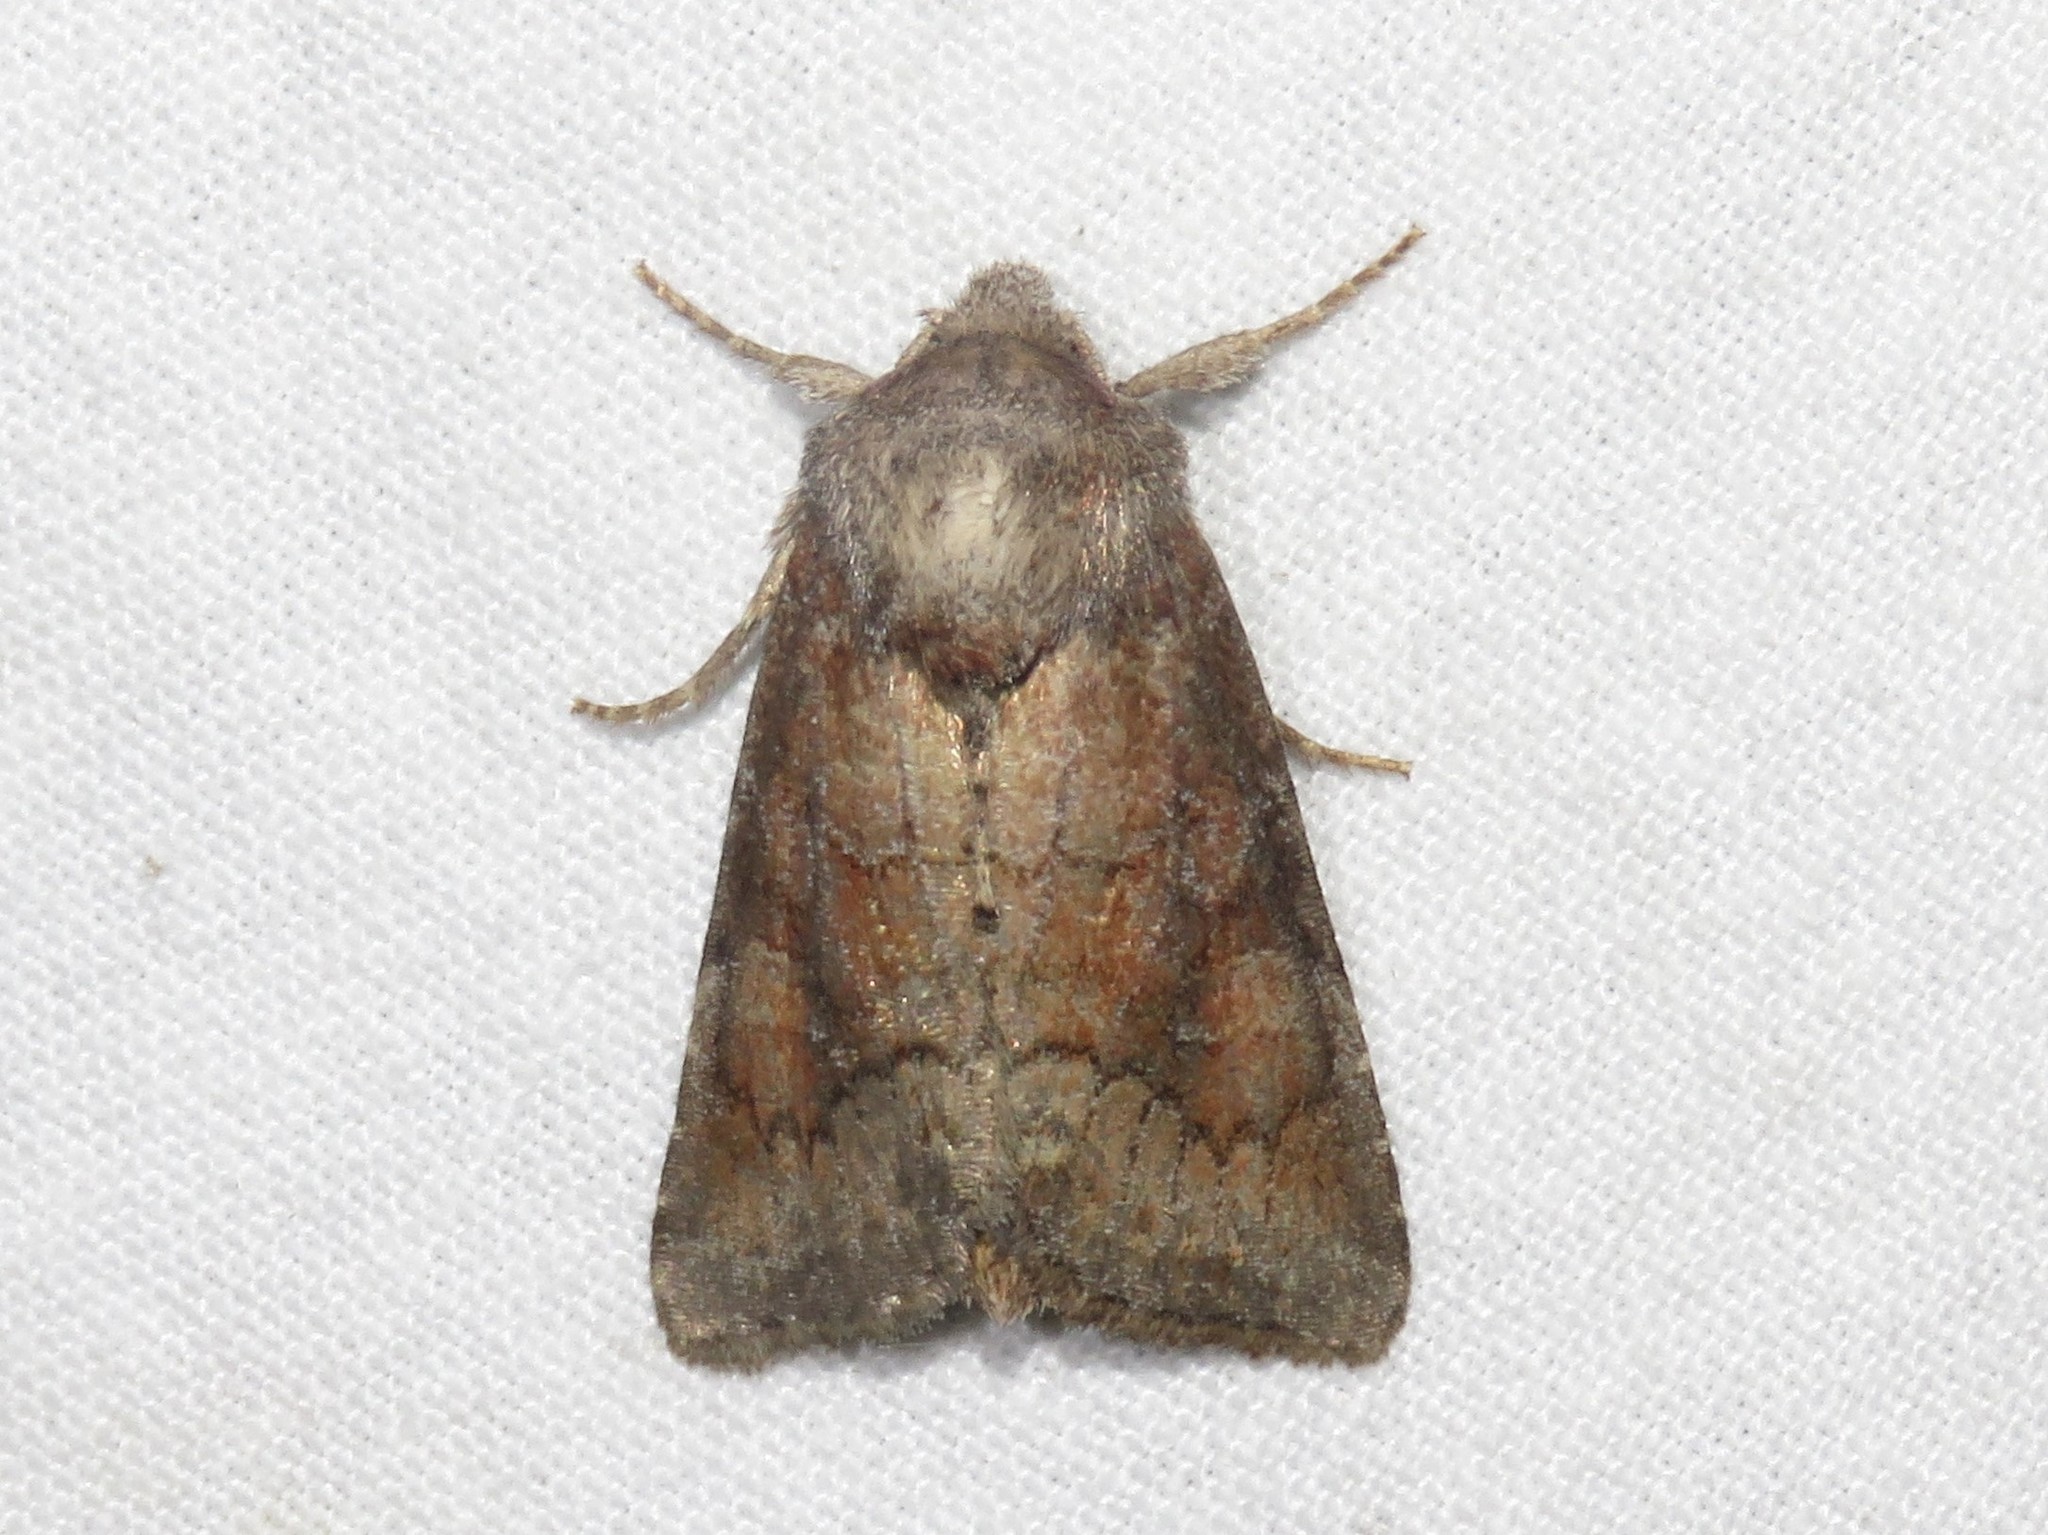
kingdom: Animalia
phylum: Arthropoda
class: Insecta
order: Lepidoptera
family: Noctuidae
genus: Lacinipolia
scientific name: Lacinipolia meditata
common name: Thinker moth
